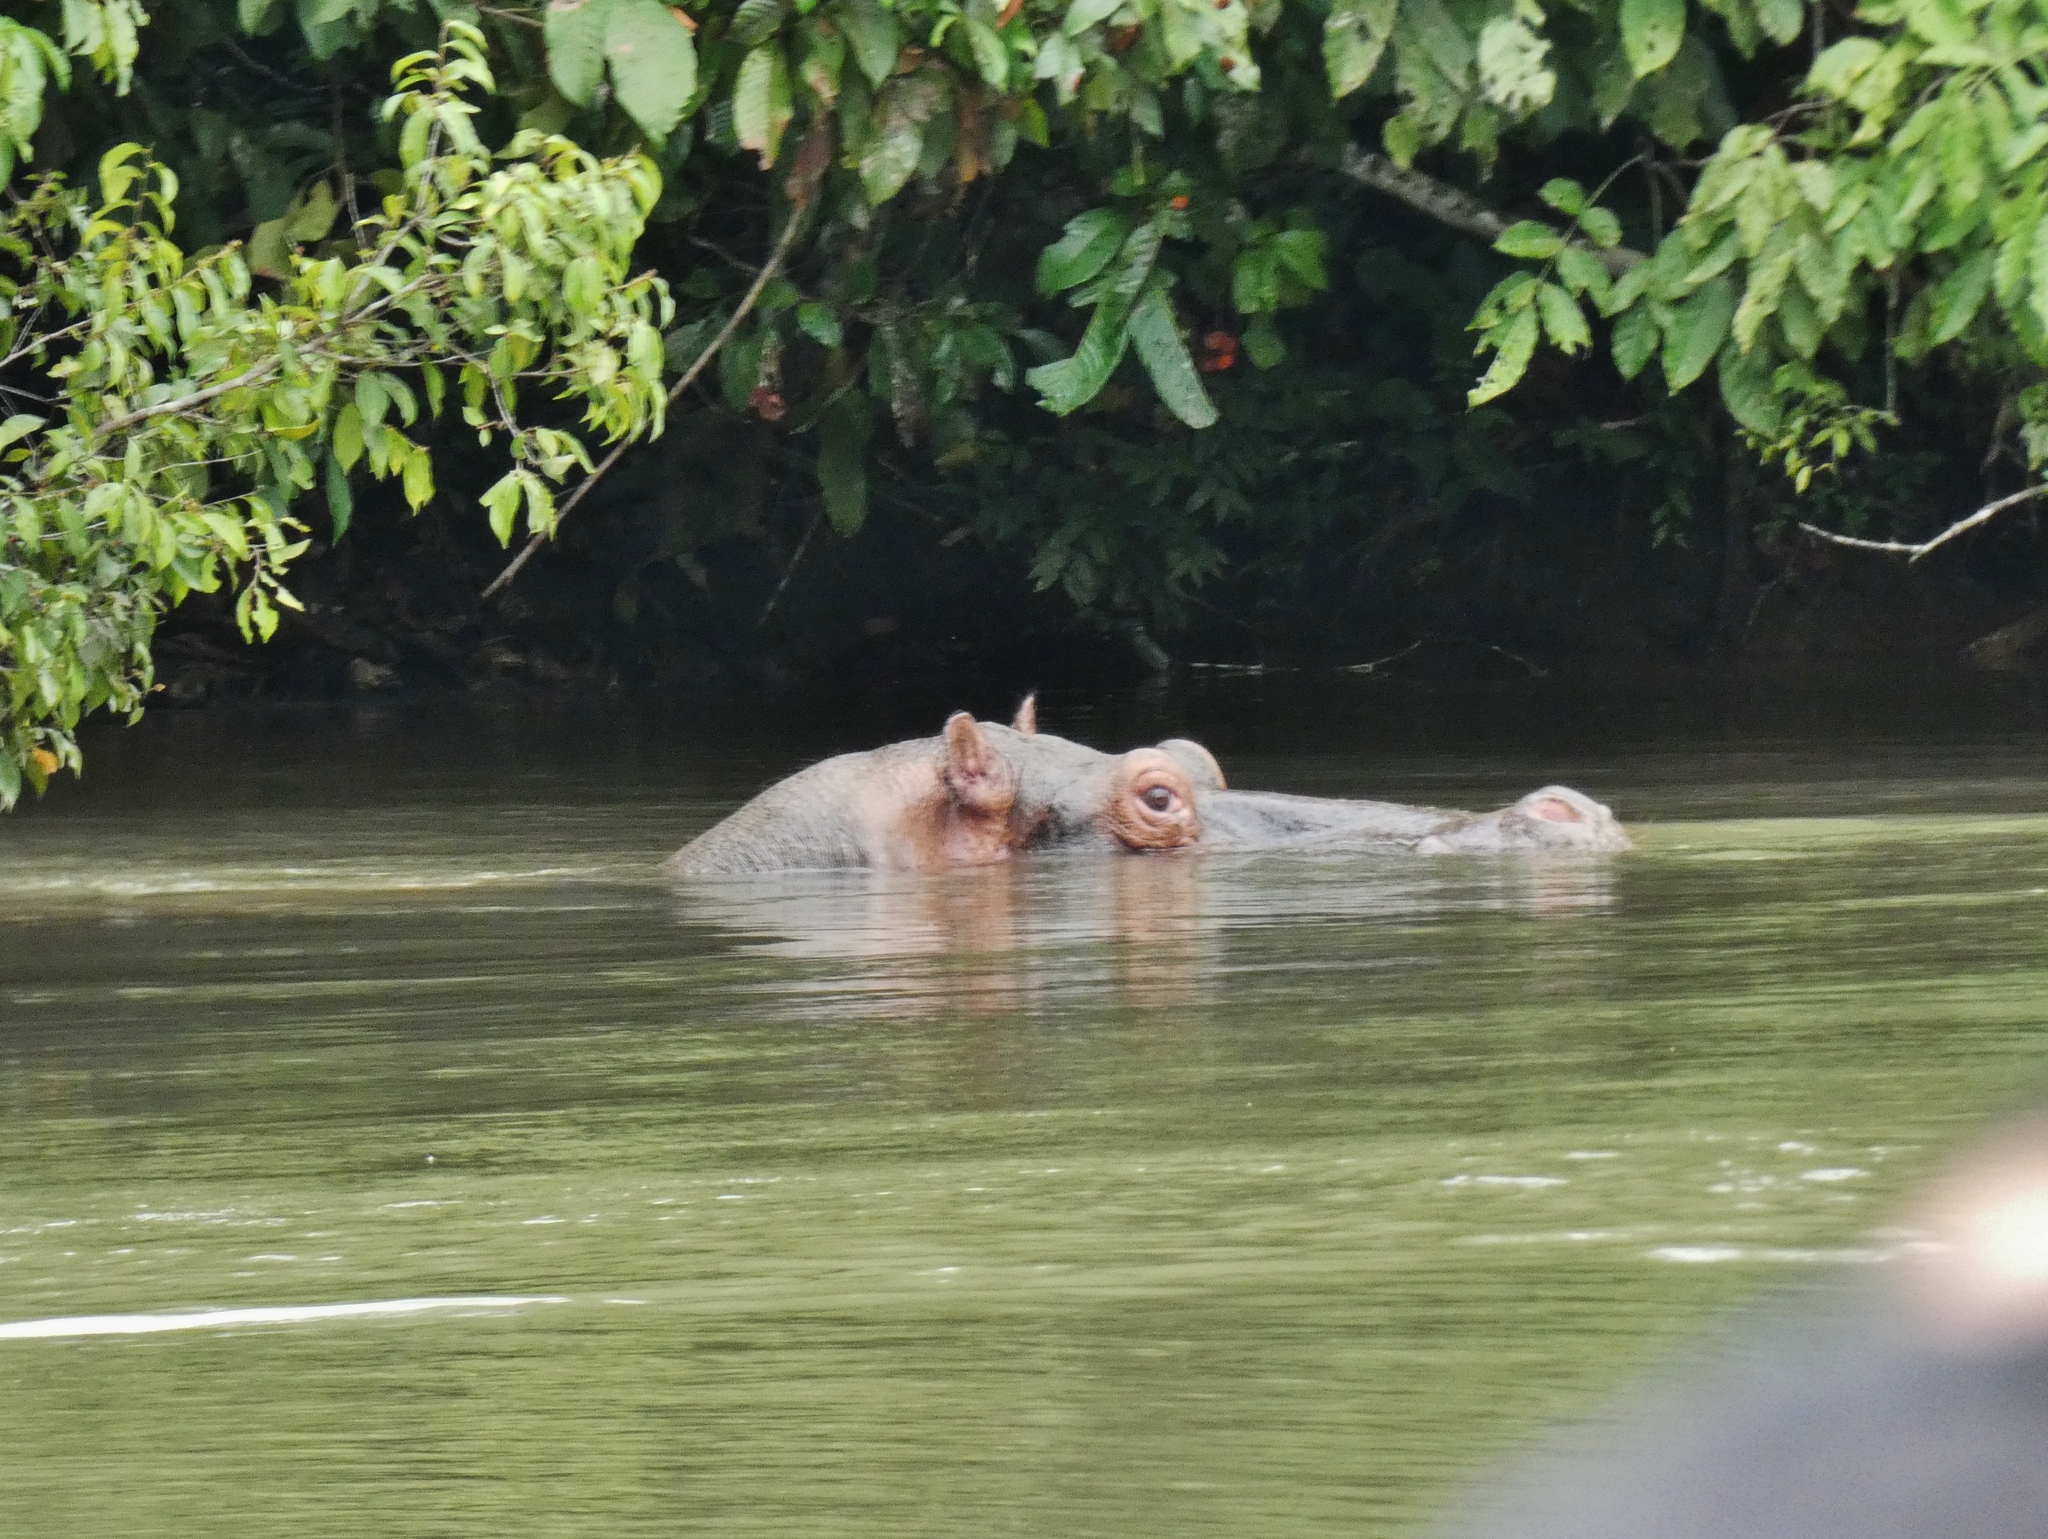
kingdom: Animalia
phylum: Chordata
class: Mammalia
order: Artiodactyla
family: Hippopotamidae
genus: Hippopotamus
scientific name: Hippopotamus amphibius
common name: Common hippopotamus
